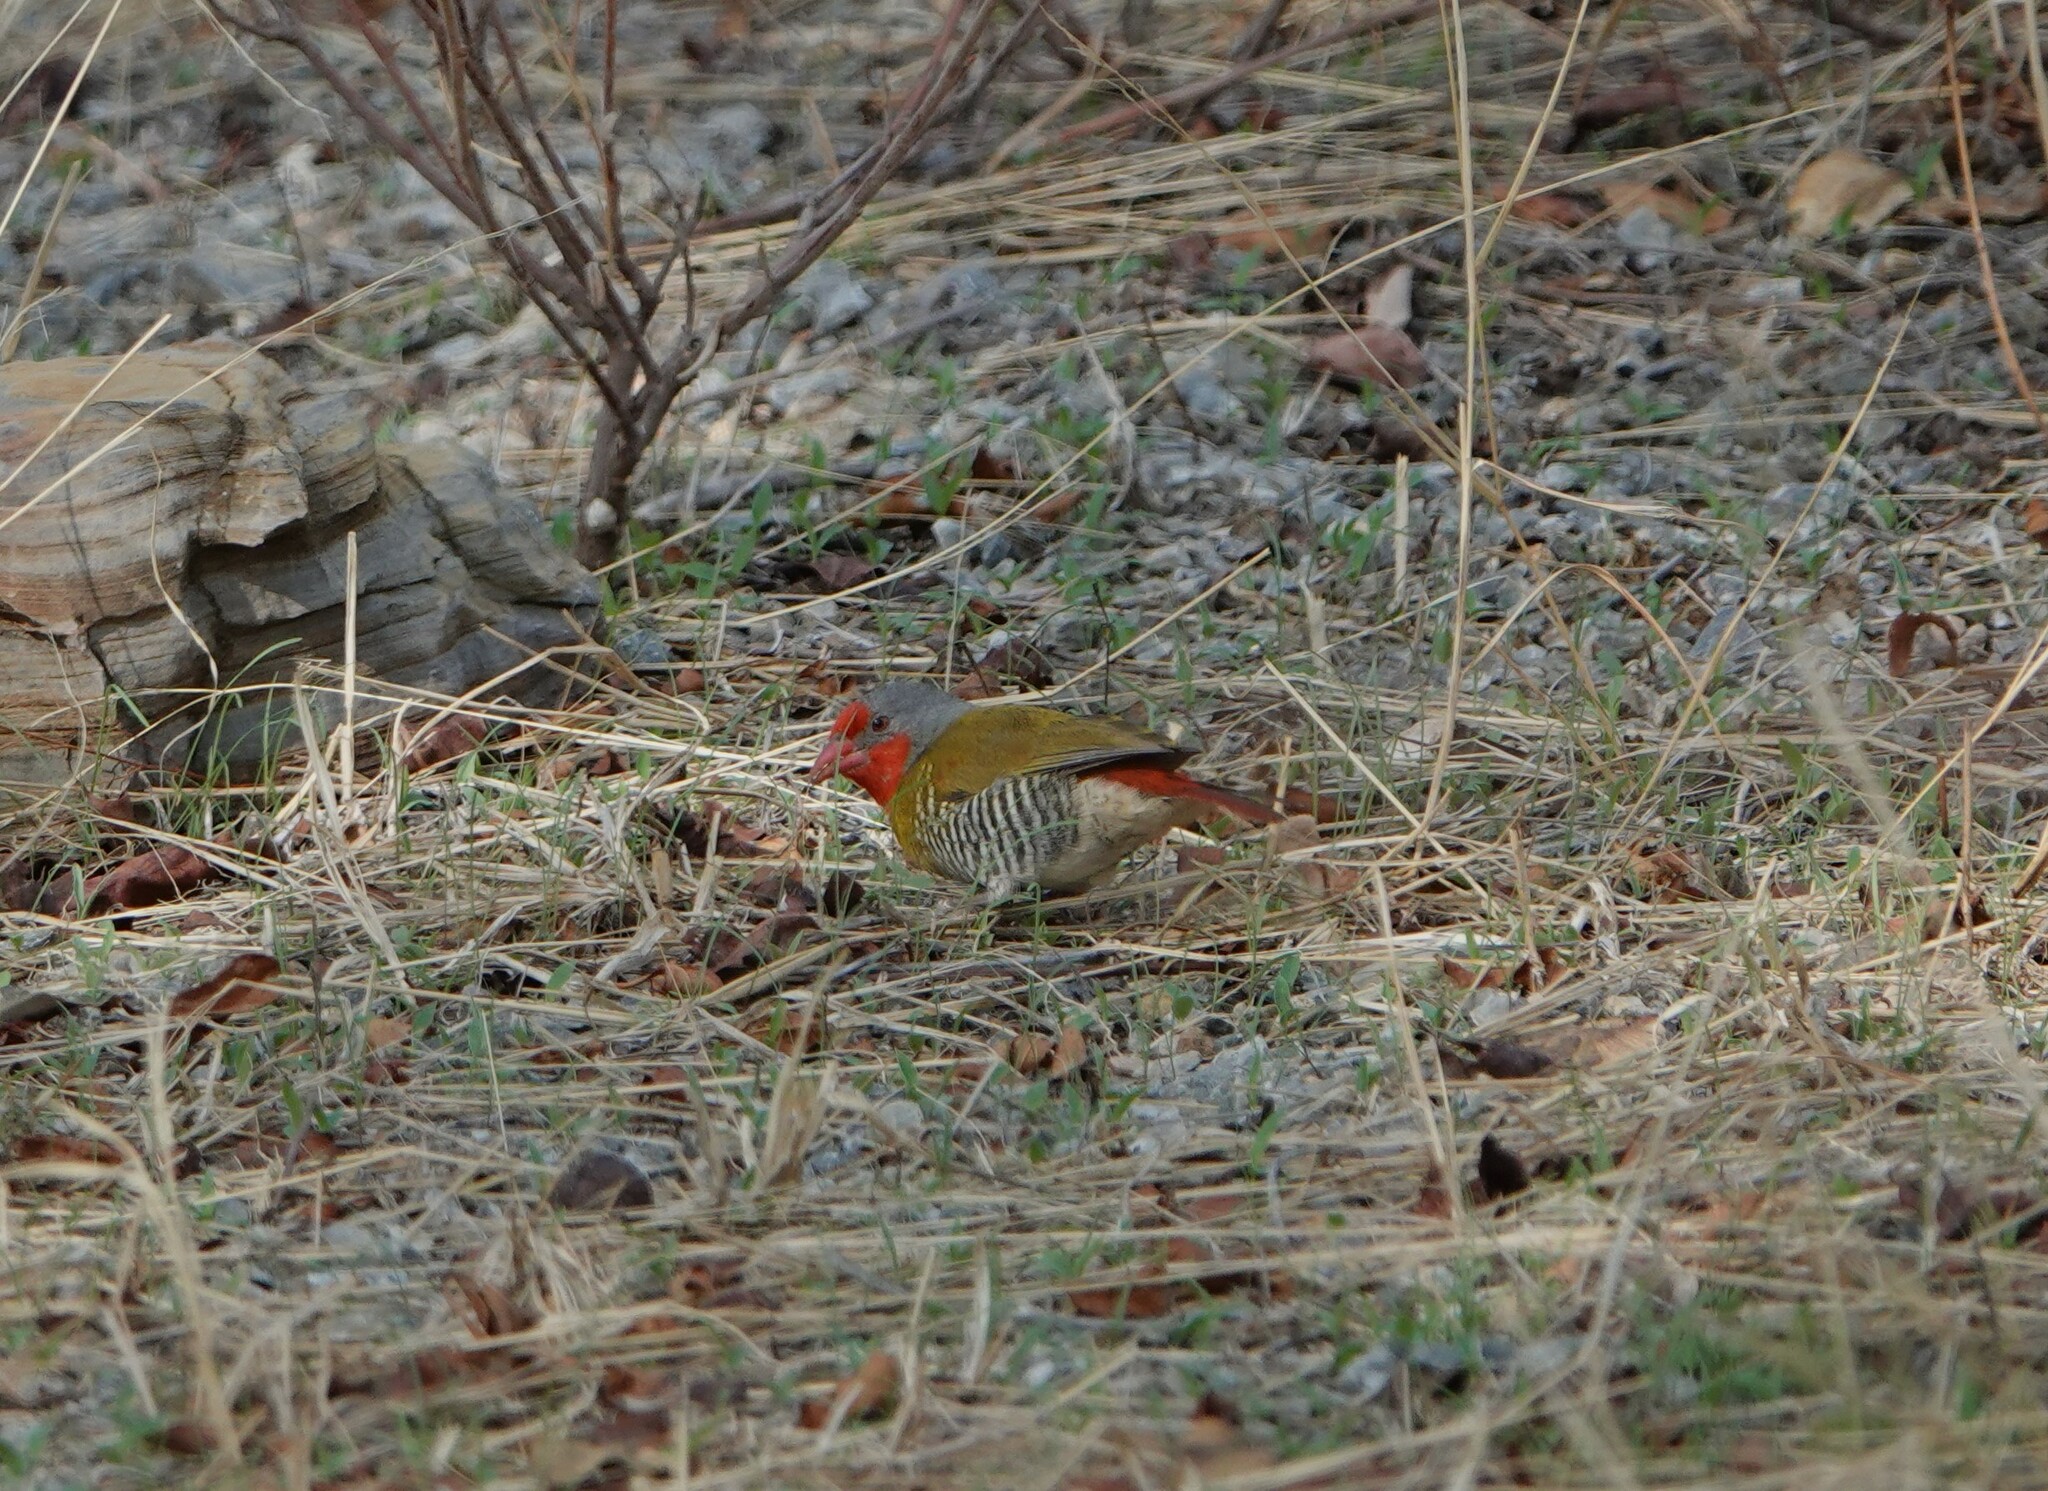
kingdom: Animalia
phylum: Chordata
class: Aves
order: Passeriformes
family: Estrildidae
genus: Pytilia
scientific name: Pytilia melba
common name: Green-winged pytilia
